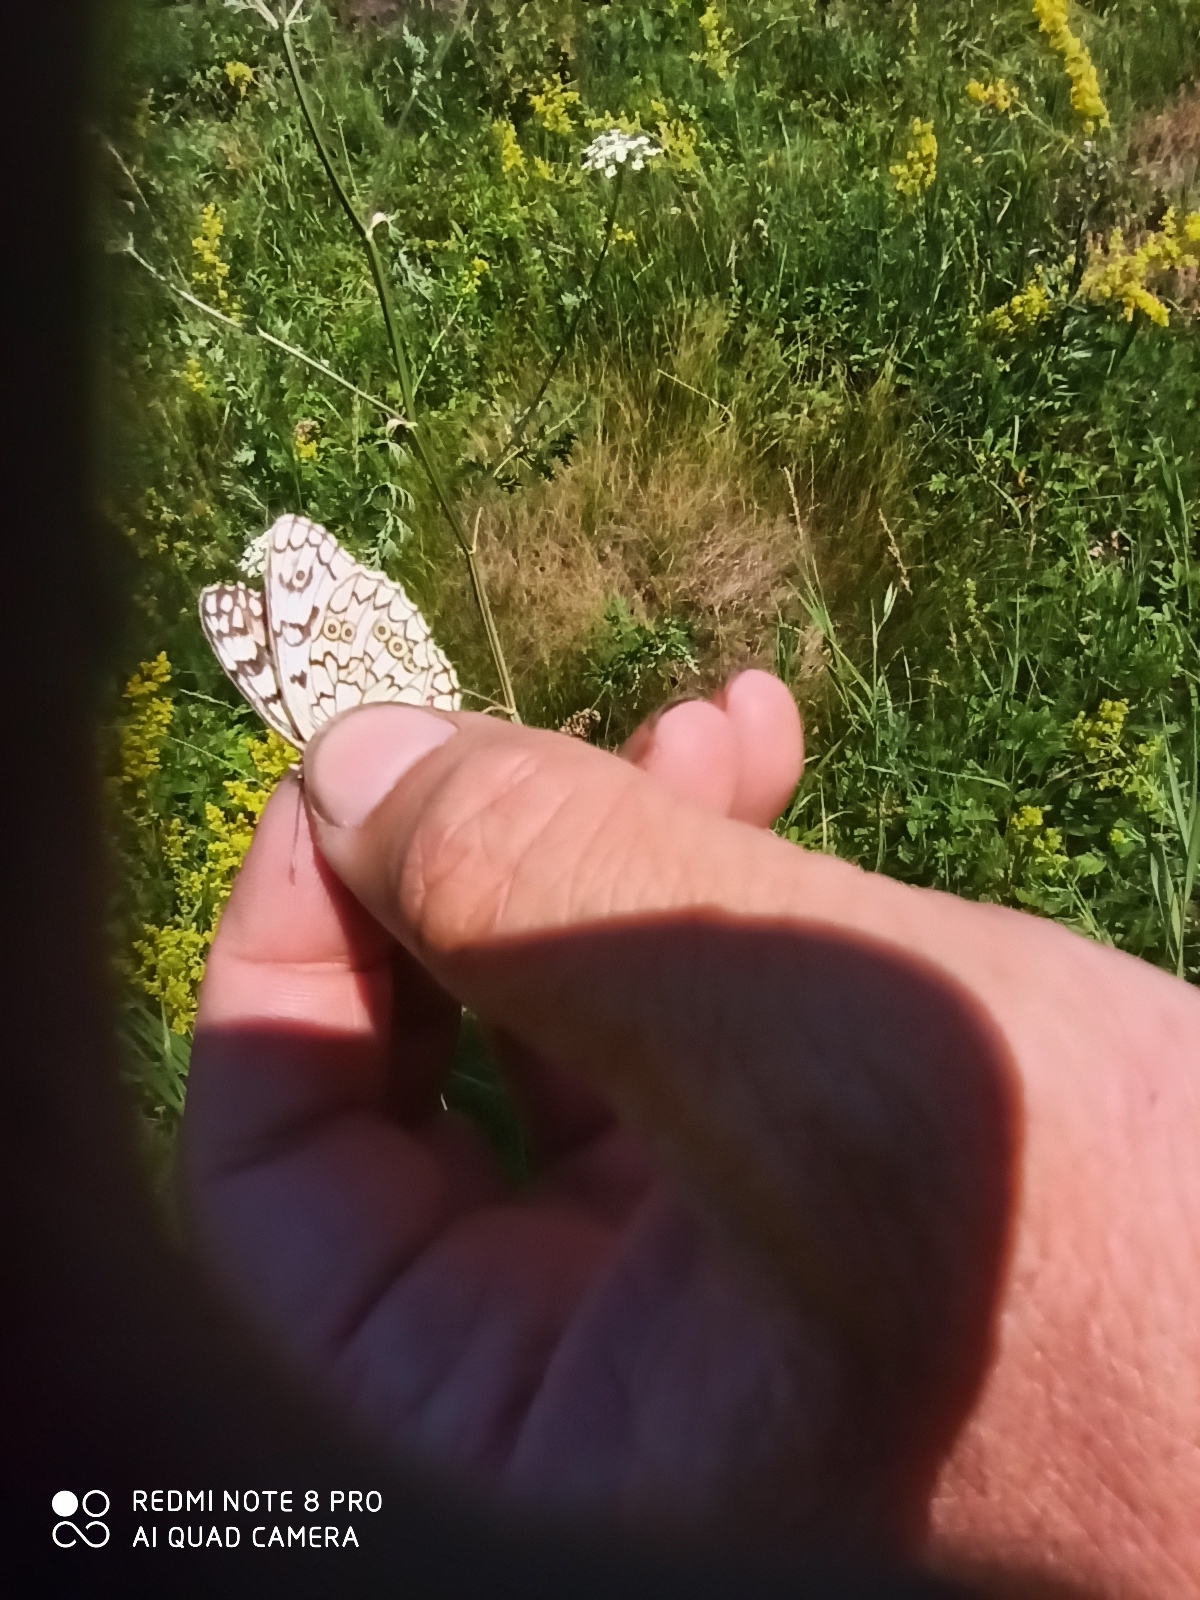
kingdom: Animalia
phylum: Arthropoda
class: Insecta
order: Lepidoptera
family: Nymphalidae
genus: Melanargia
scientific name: Melanargia japygia
